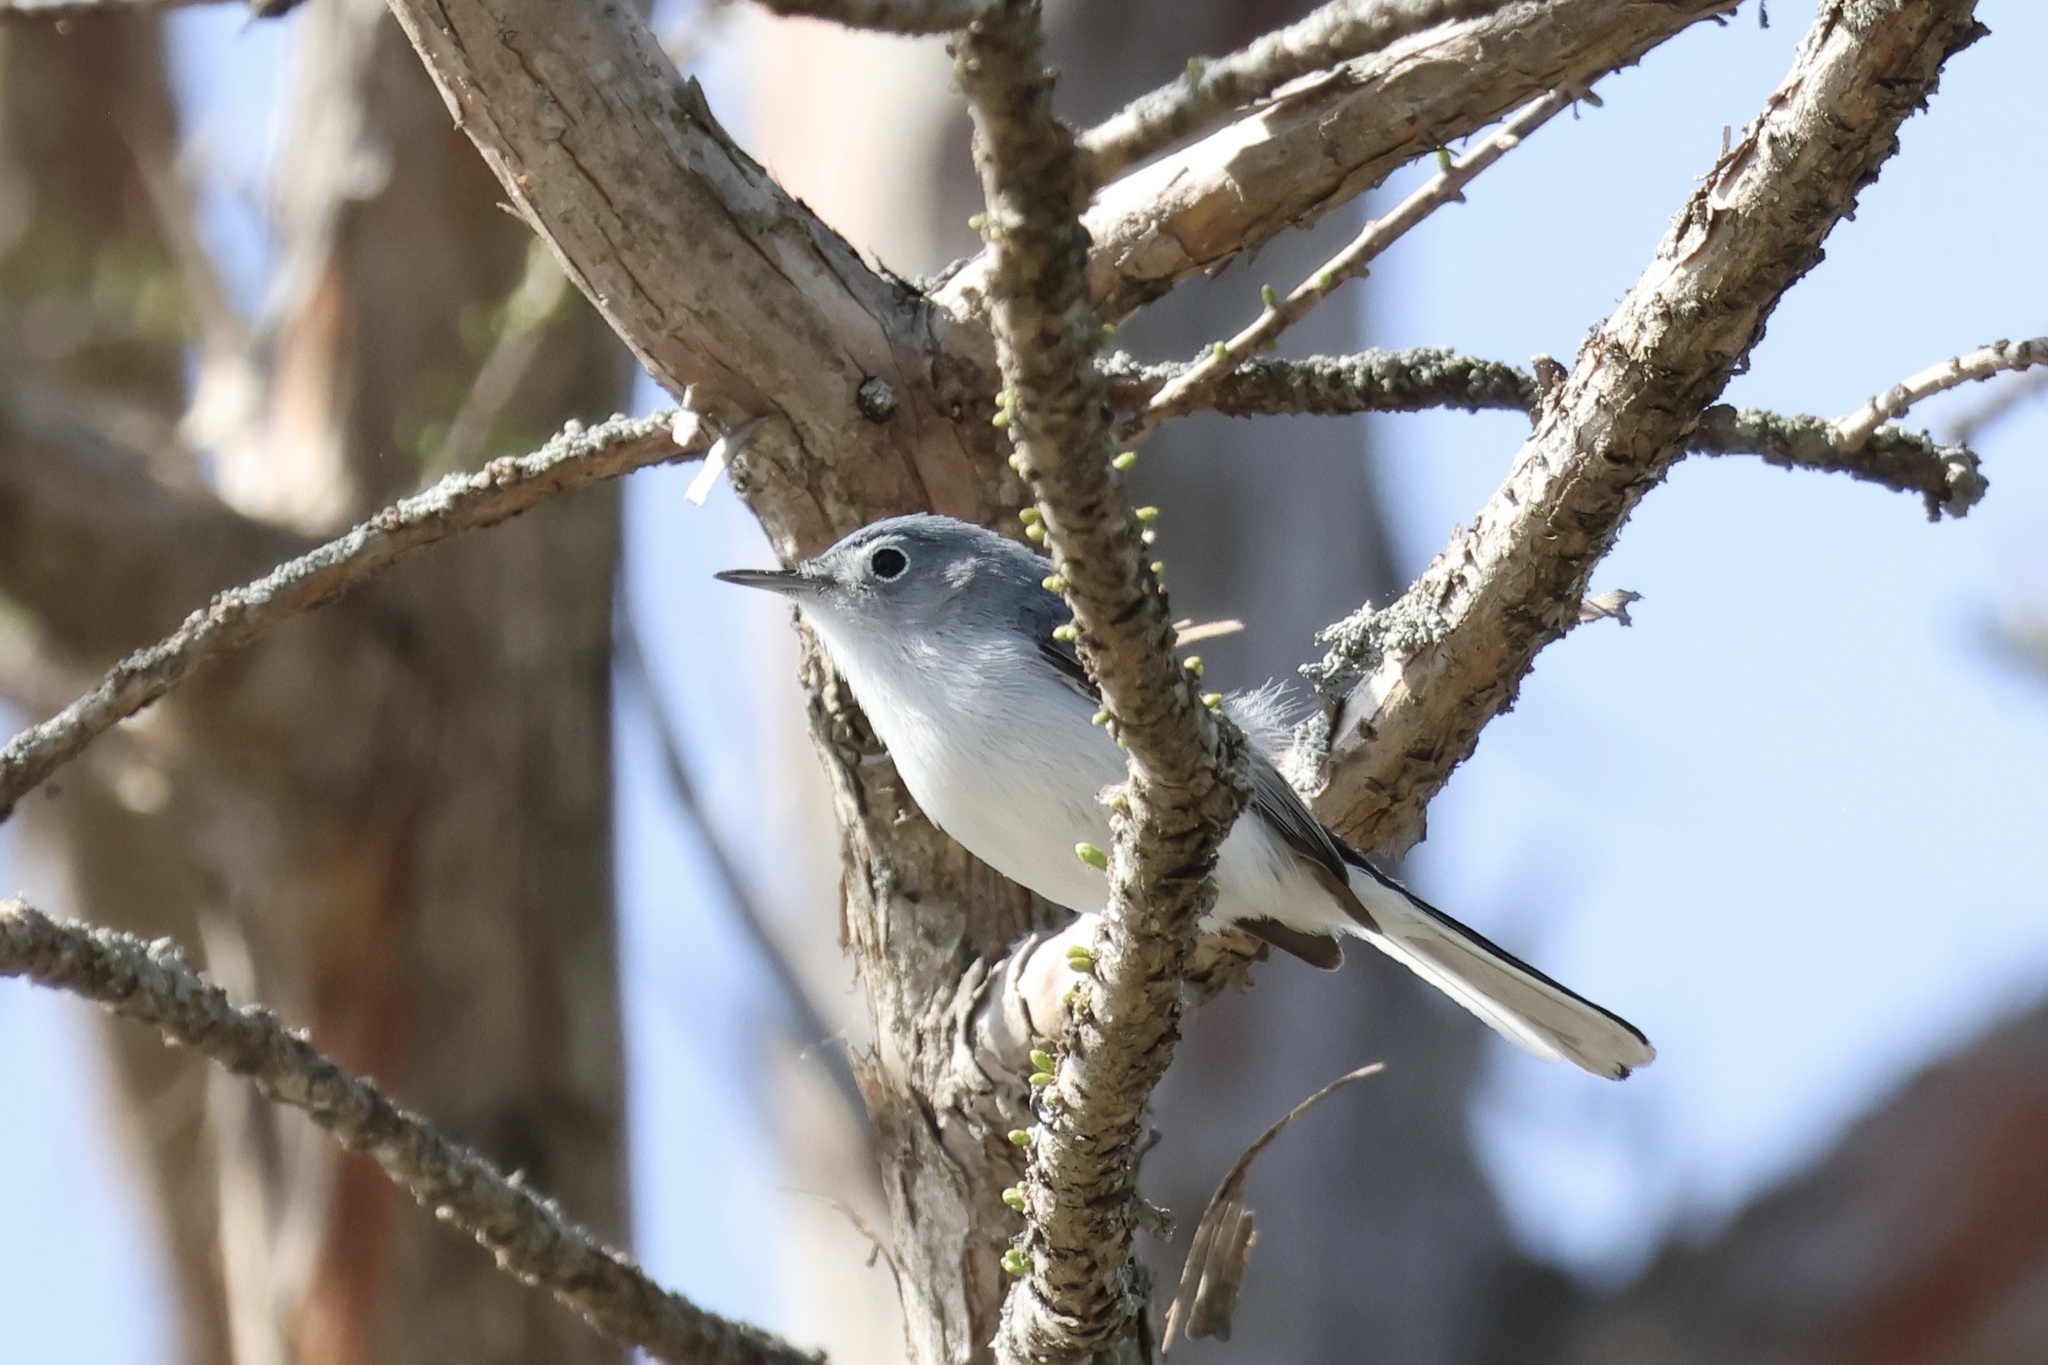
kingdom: Animalia
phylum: Chordata
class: Aves
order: Passeriformes
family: Polioptilidae
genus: Polioptila
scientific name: Polioptila caerulea
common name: Blue-gray gnatcatcher
